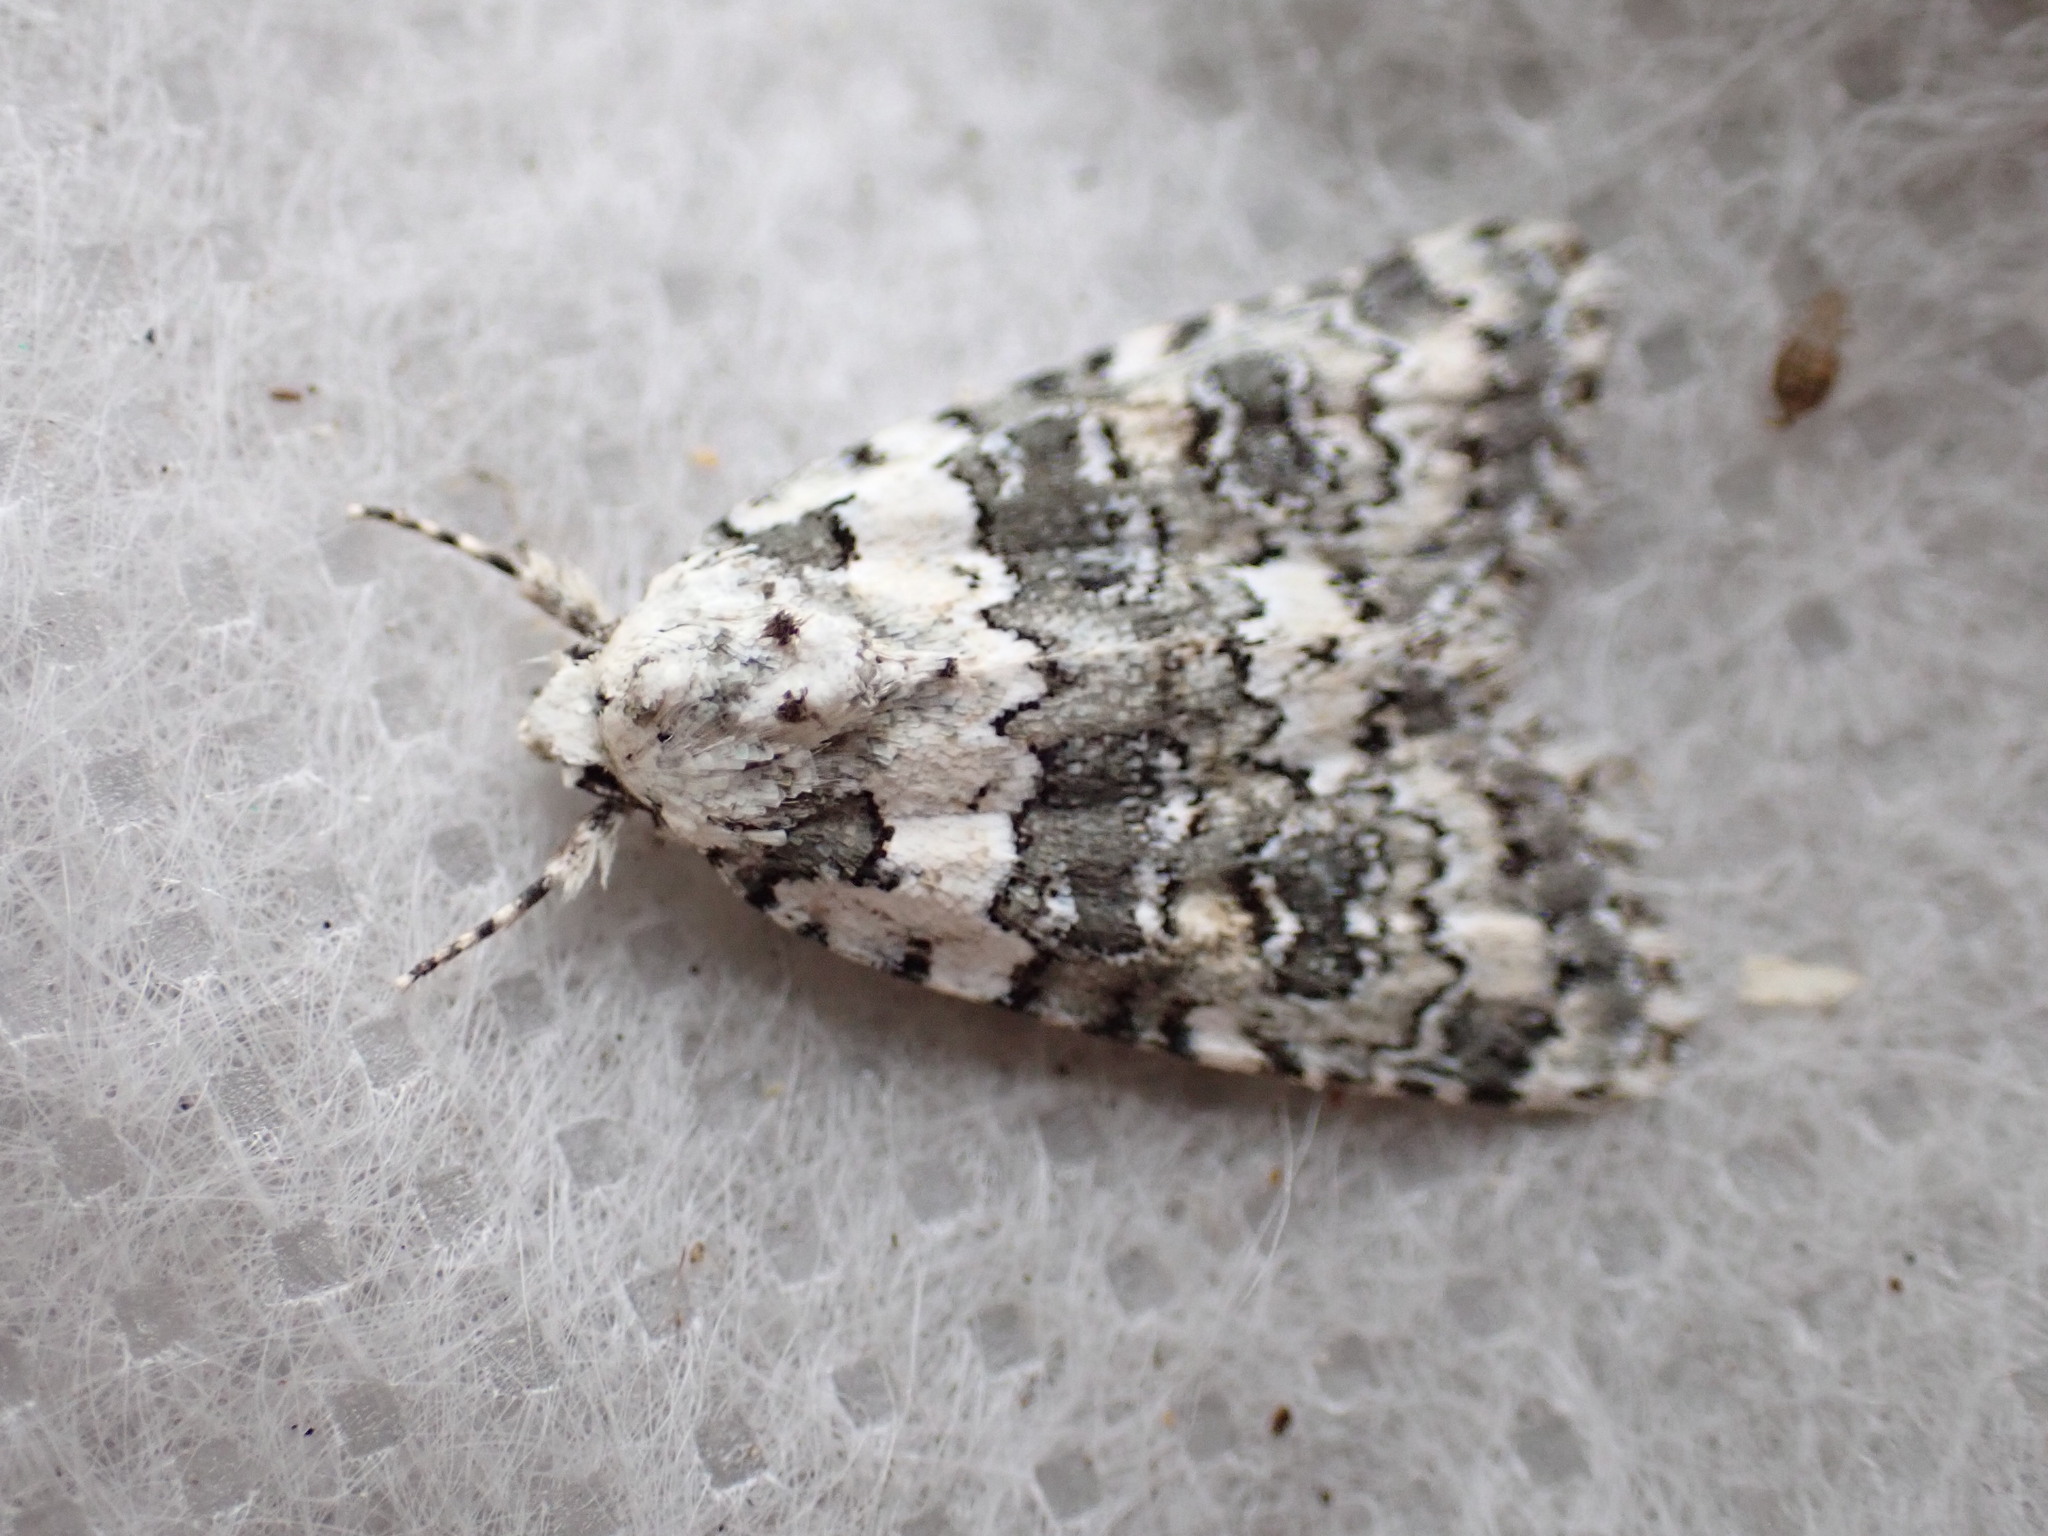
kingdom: Animalia
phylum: Arthropoda
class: Insecta
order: Lepidoptera
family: Noctuidae
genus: Bryophila
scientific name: Bryophila domestica
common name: Marbled beauty
